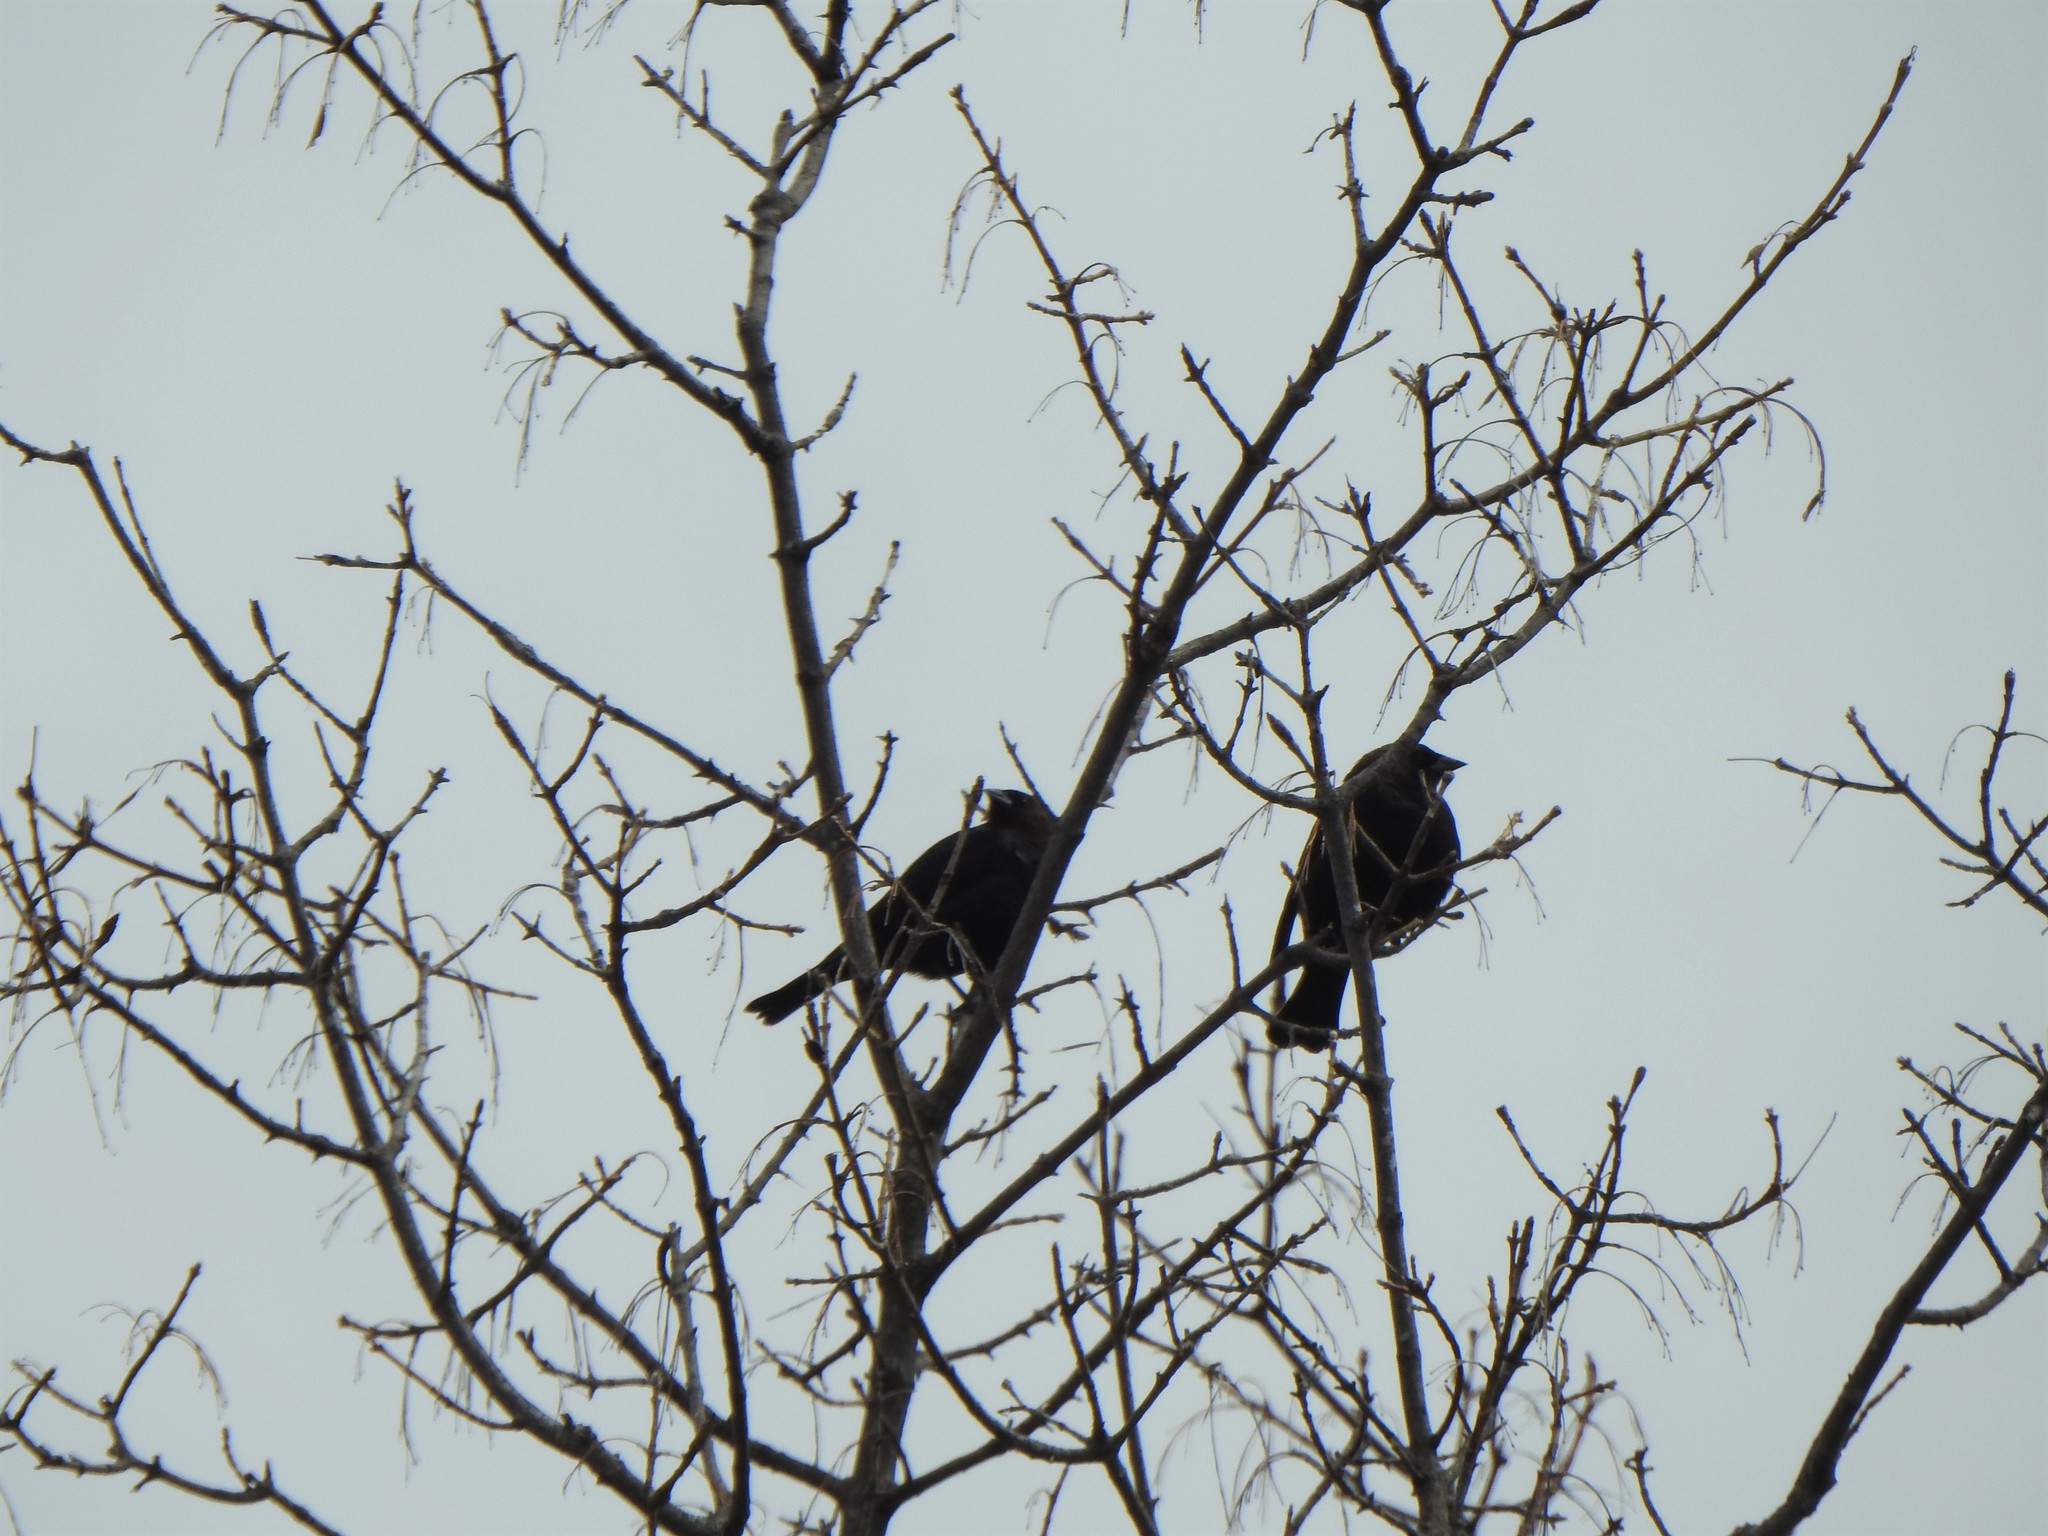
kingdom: Animalia
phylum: Chordata
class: Aves
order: Passeriformes
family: Icteridae
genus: Molothrus
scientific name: Molothrus ater
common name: Brown-headed cowbird
